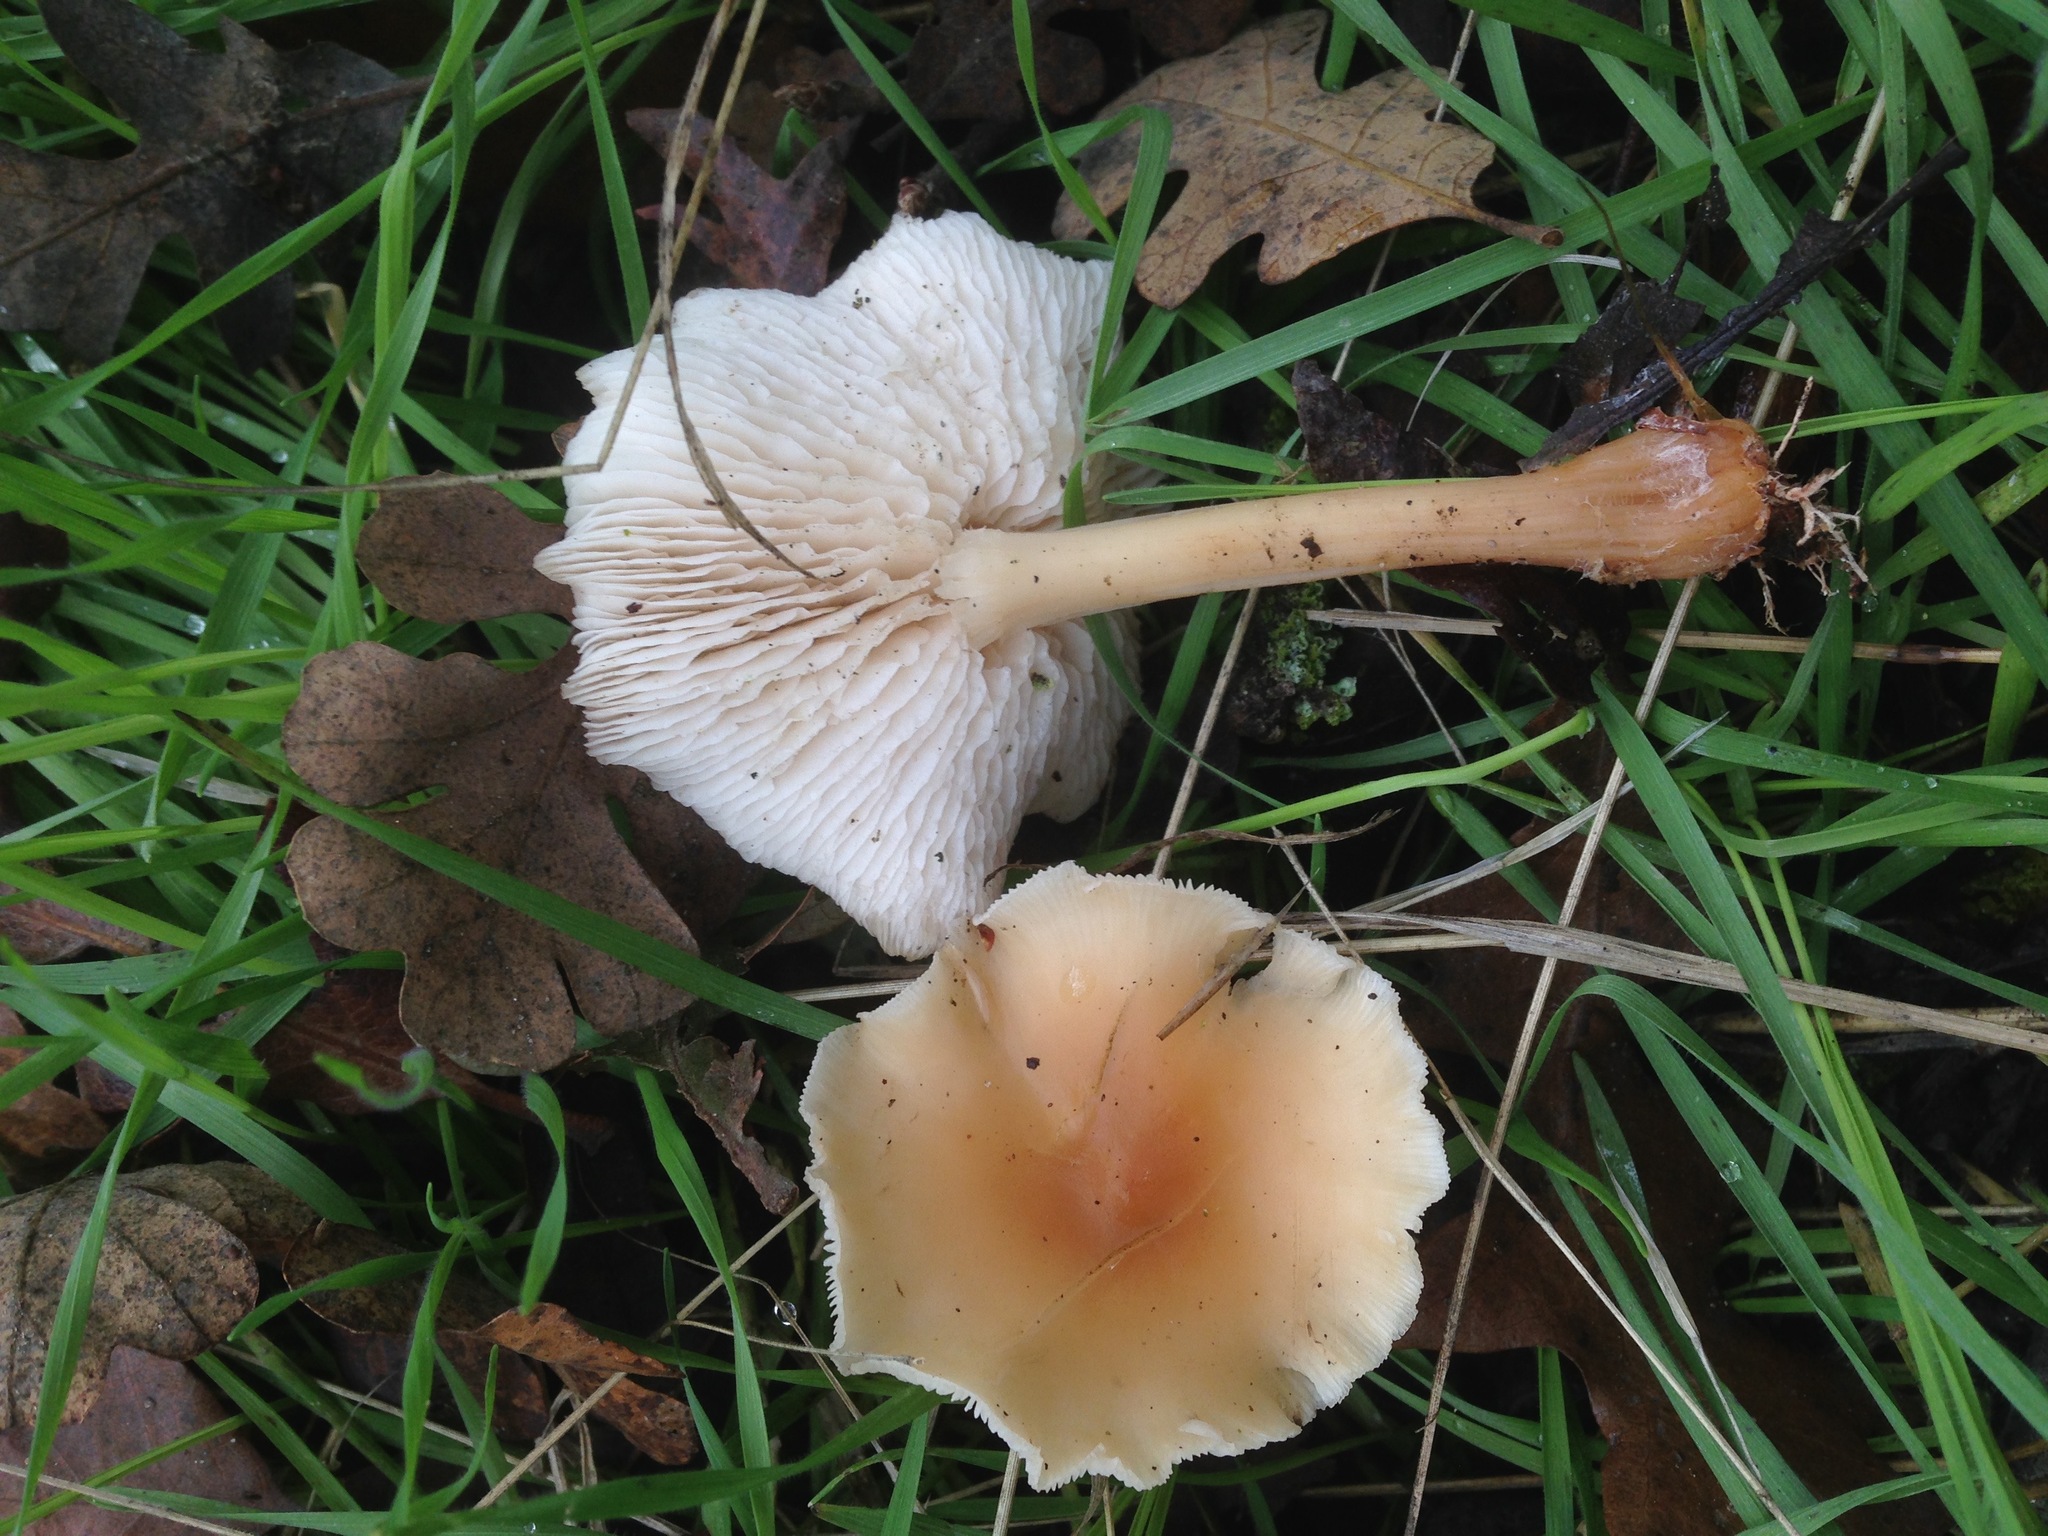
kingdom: Fungi
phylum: Basidiomycota
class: Agaricomycetes
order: Agaricales
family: Omphalotaceae
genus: Gymnopus
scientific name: Gymnopus dryophilus
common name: Penny top
